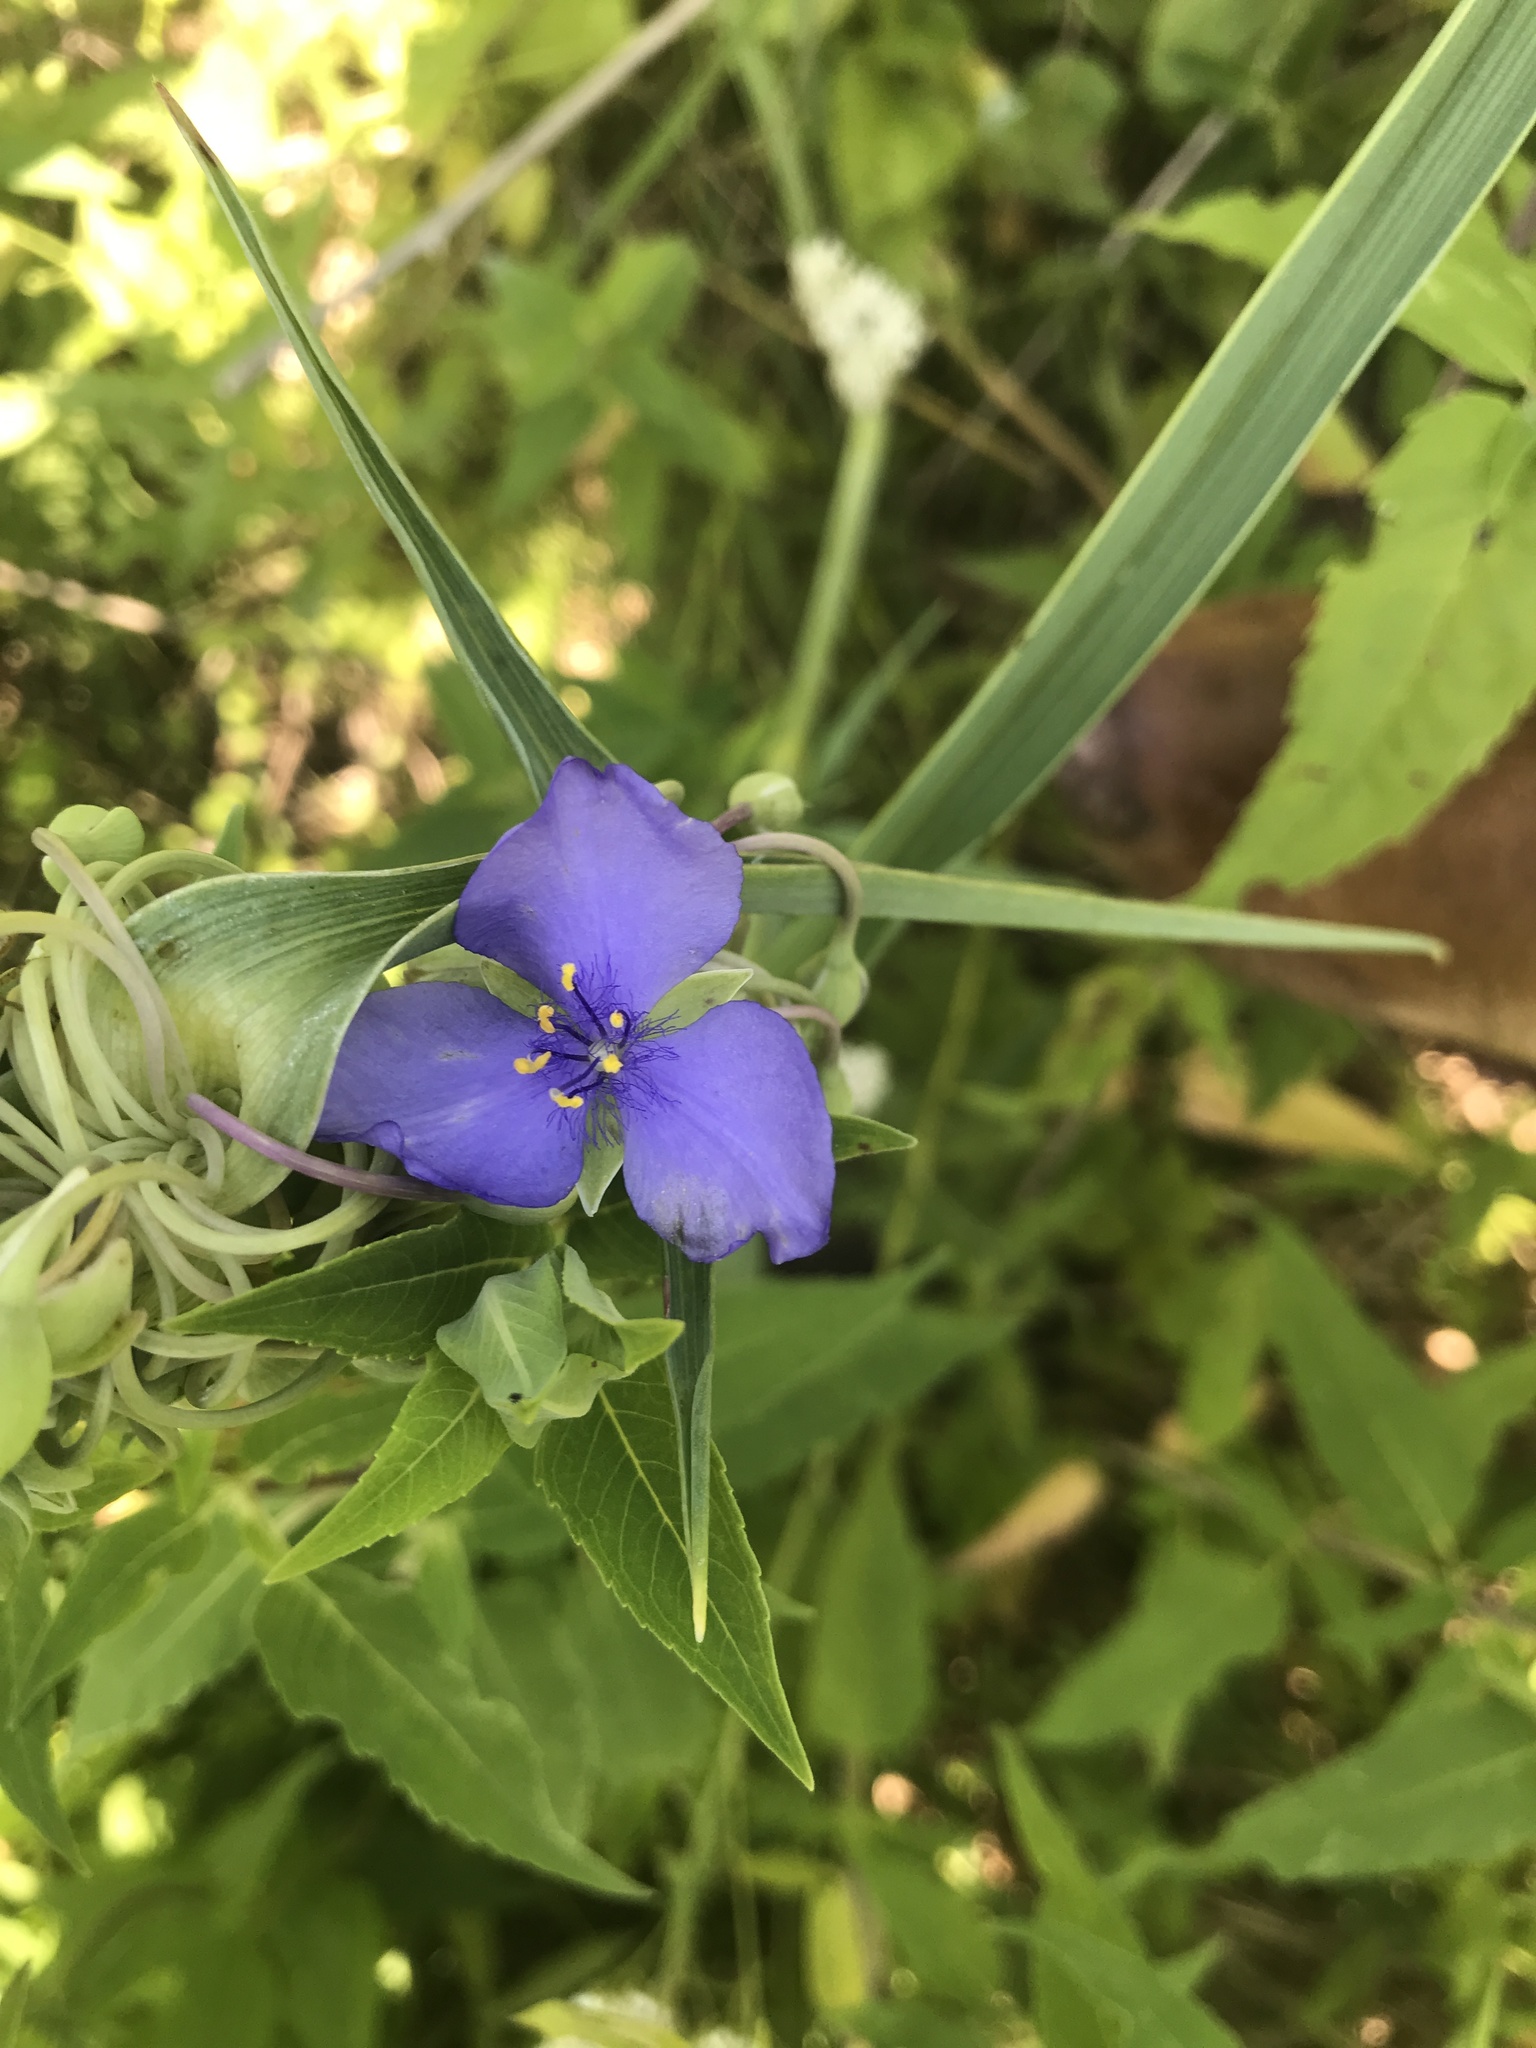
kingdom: Plantae
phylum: Tracheophyta
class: Liliopsida
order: Commelinales
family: Commelinaceae
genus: Tradescantia
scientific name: Tradescantia occidentalis
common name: Prairie spiderwort
